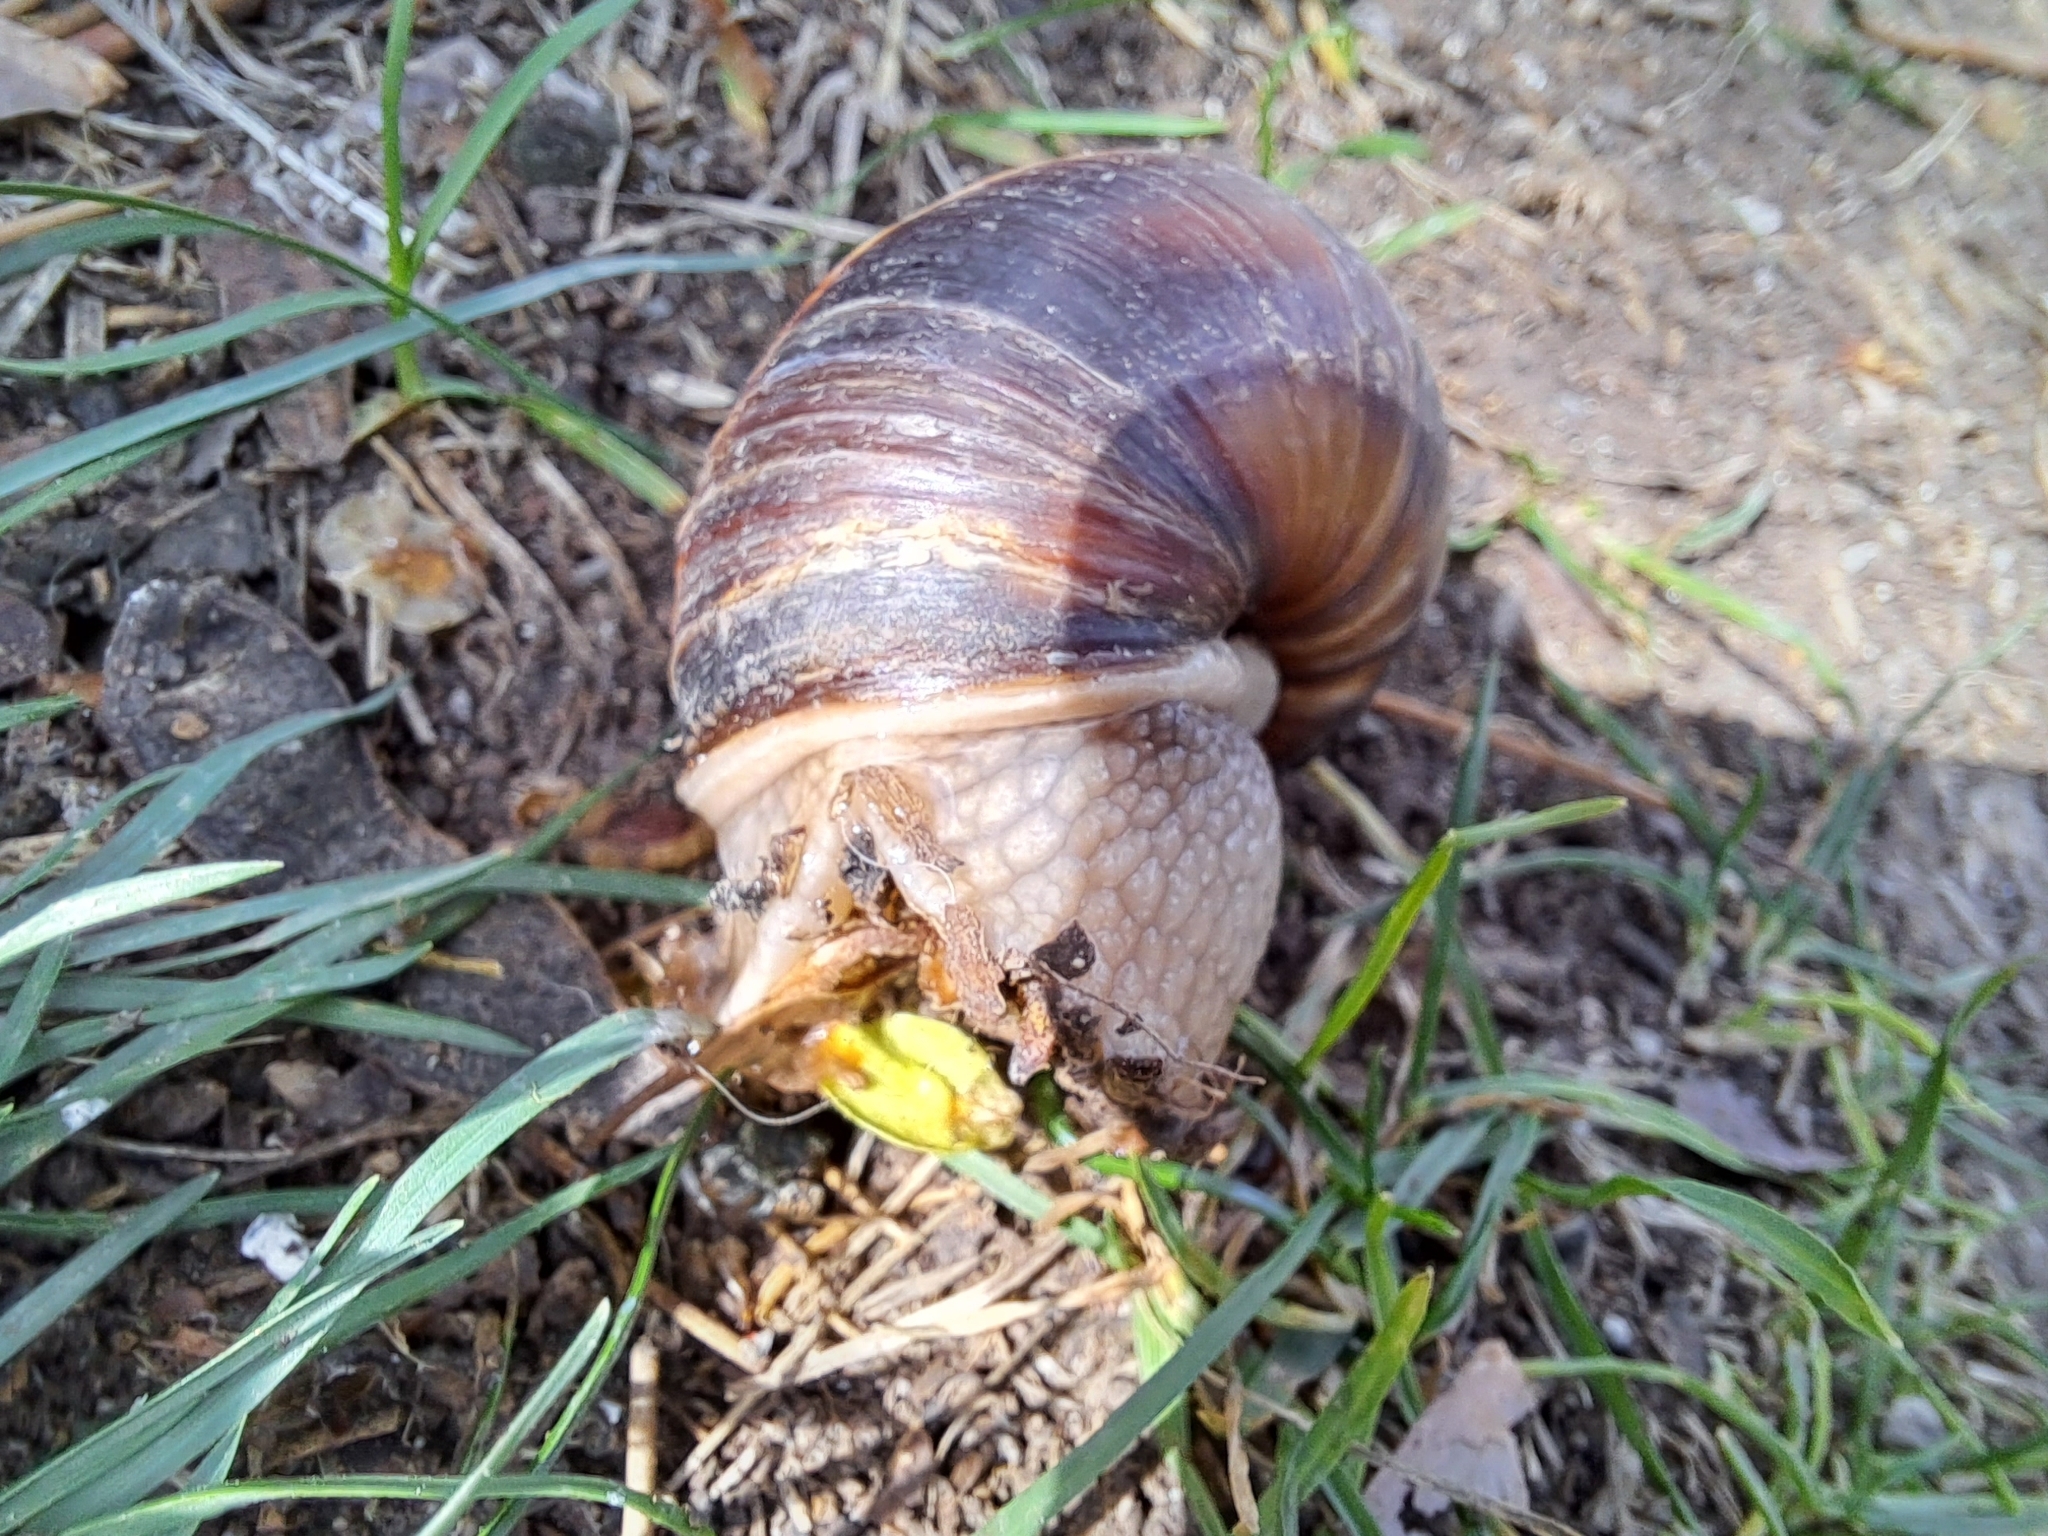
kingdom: Animalia
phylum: Mollusca
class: Gastropoda
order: Stylommatophora
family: Helicidae
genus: Helix
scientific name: Helix lucorum
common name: Turkish snail
